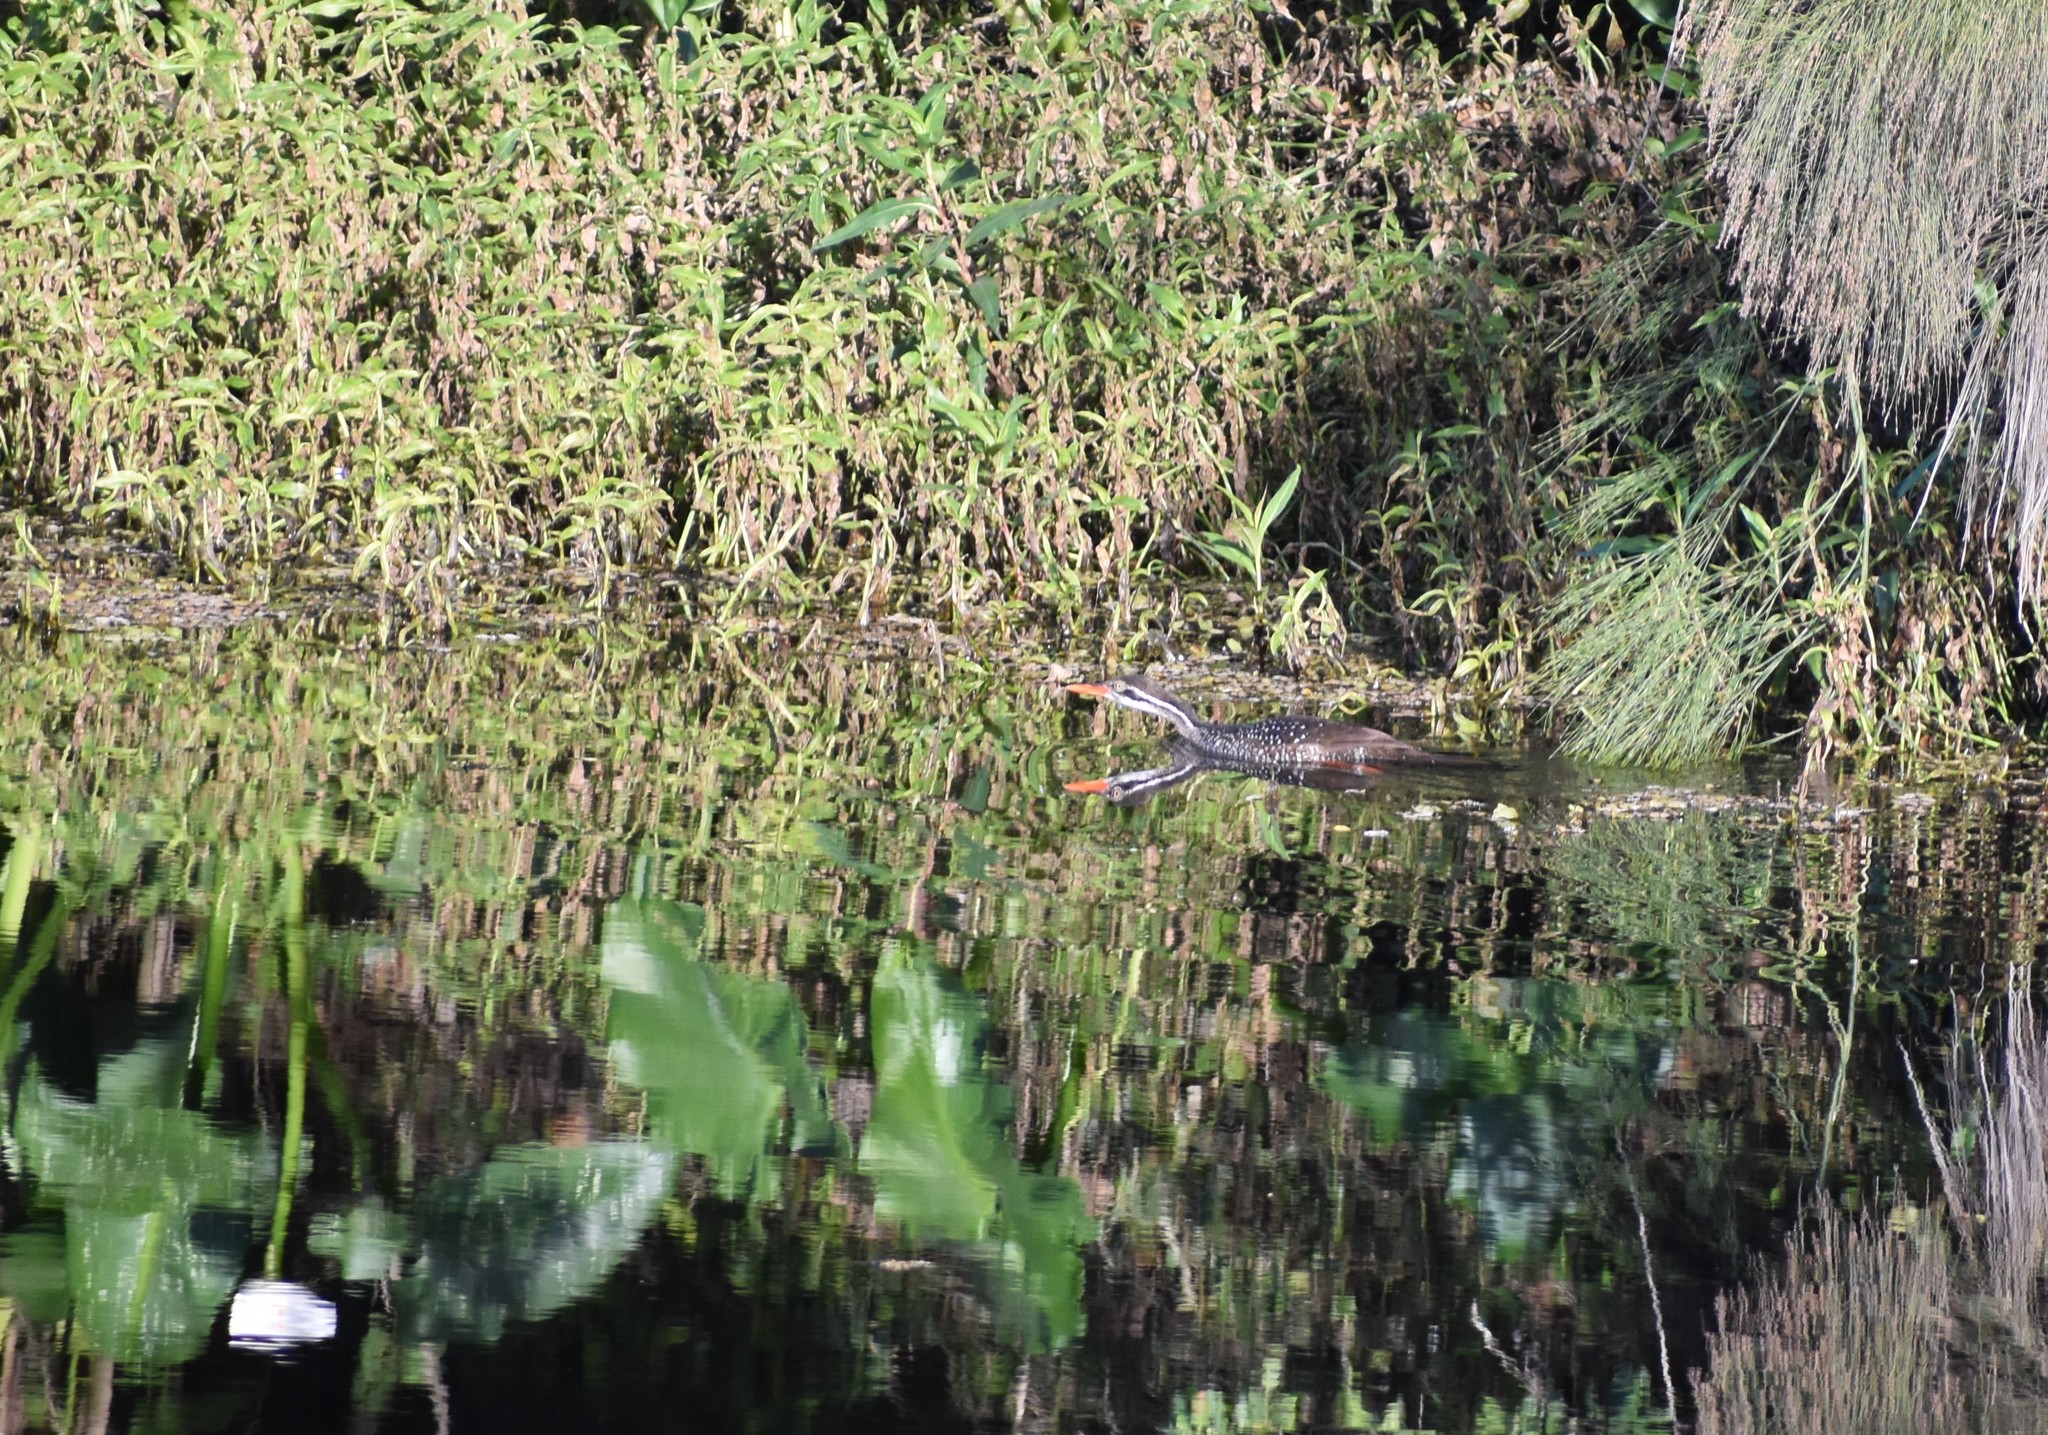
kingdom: Animalia
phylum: Chordata
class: Aves
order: Gruiformes
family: Heliornithidae
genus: Podica
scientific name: Podica senegalensis
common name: African finfoot
